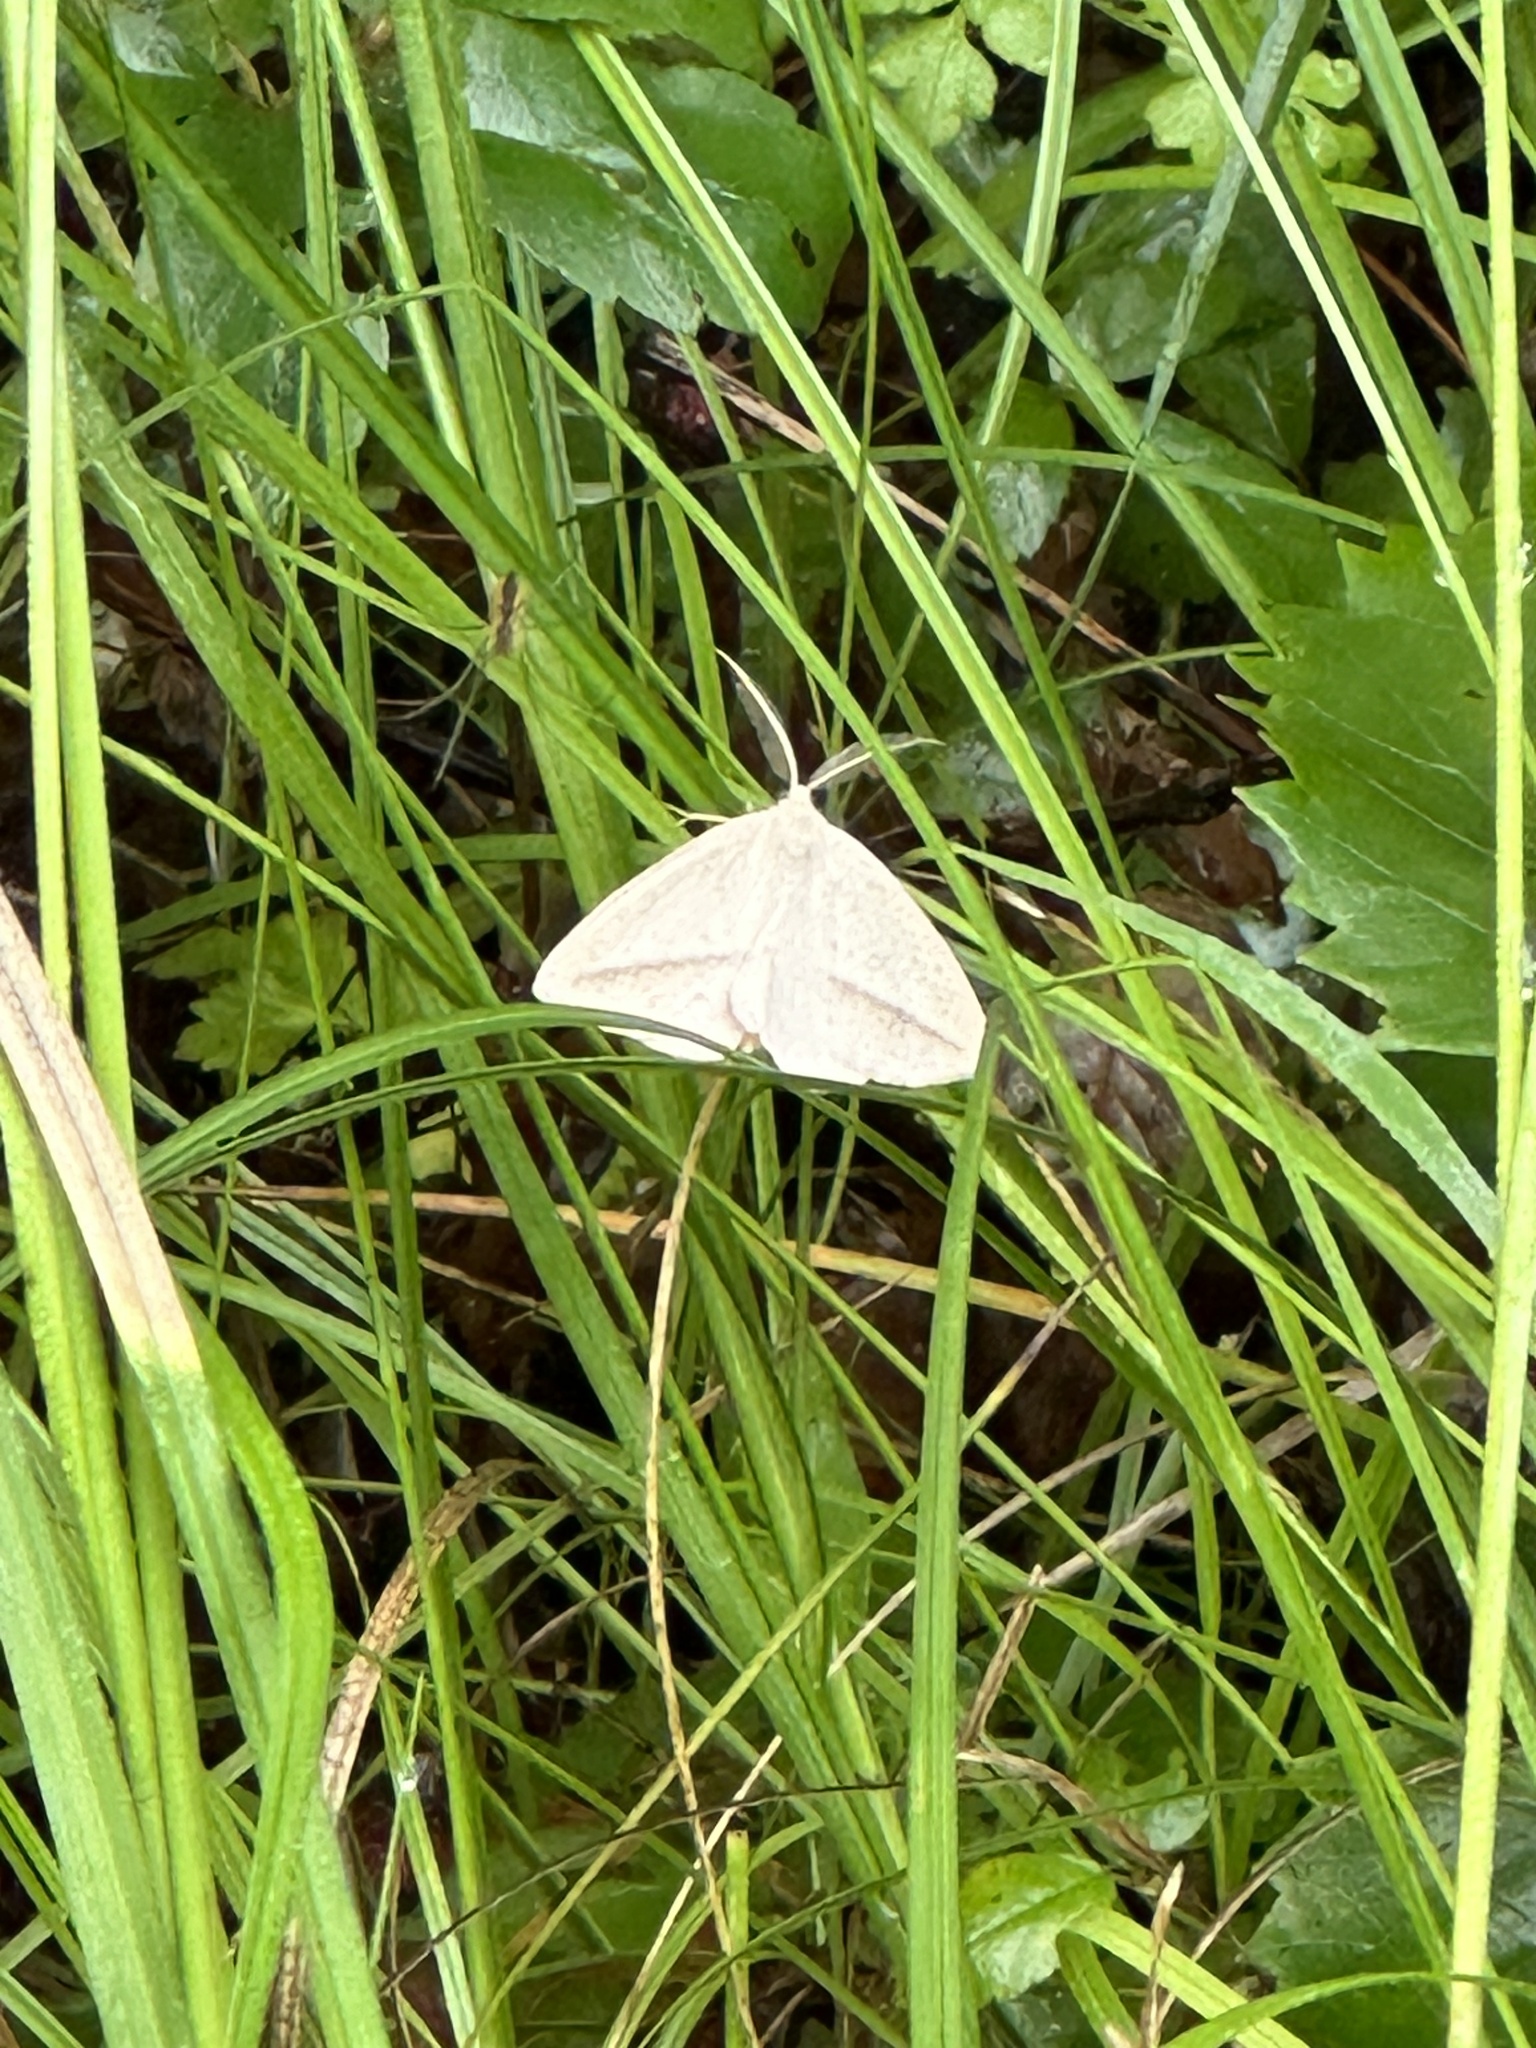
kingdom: Animalia
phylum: Arthropoda
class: Insecta
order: Lepidoptera
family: Geometridae
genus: Lychnosea
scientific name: Lychnosea intermicata
